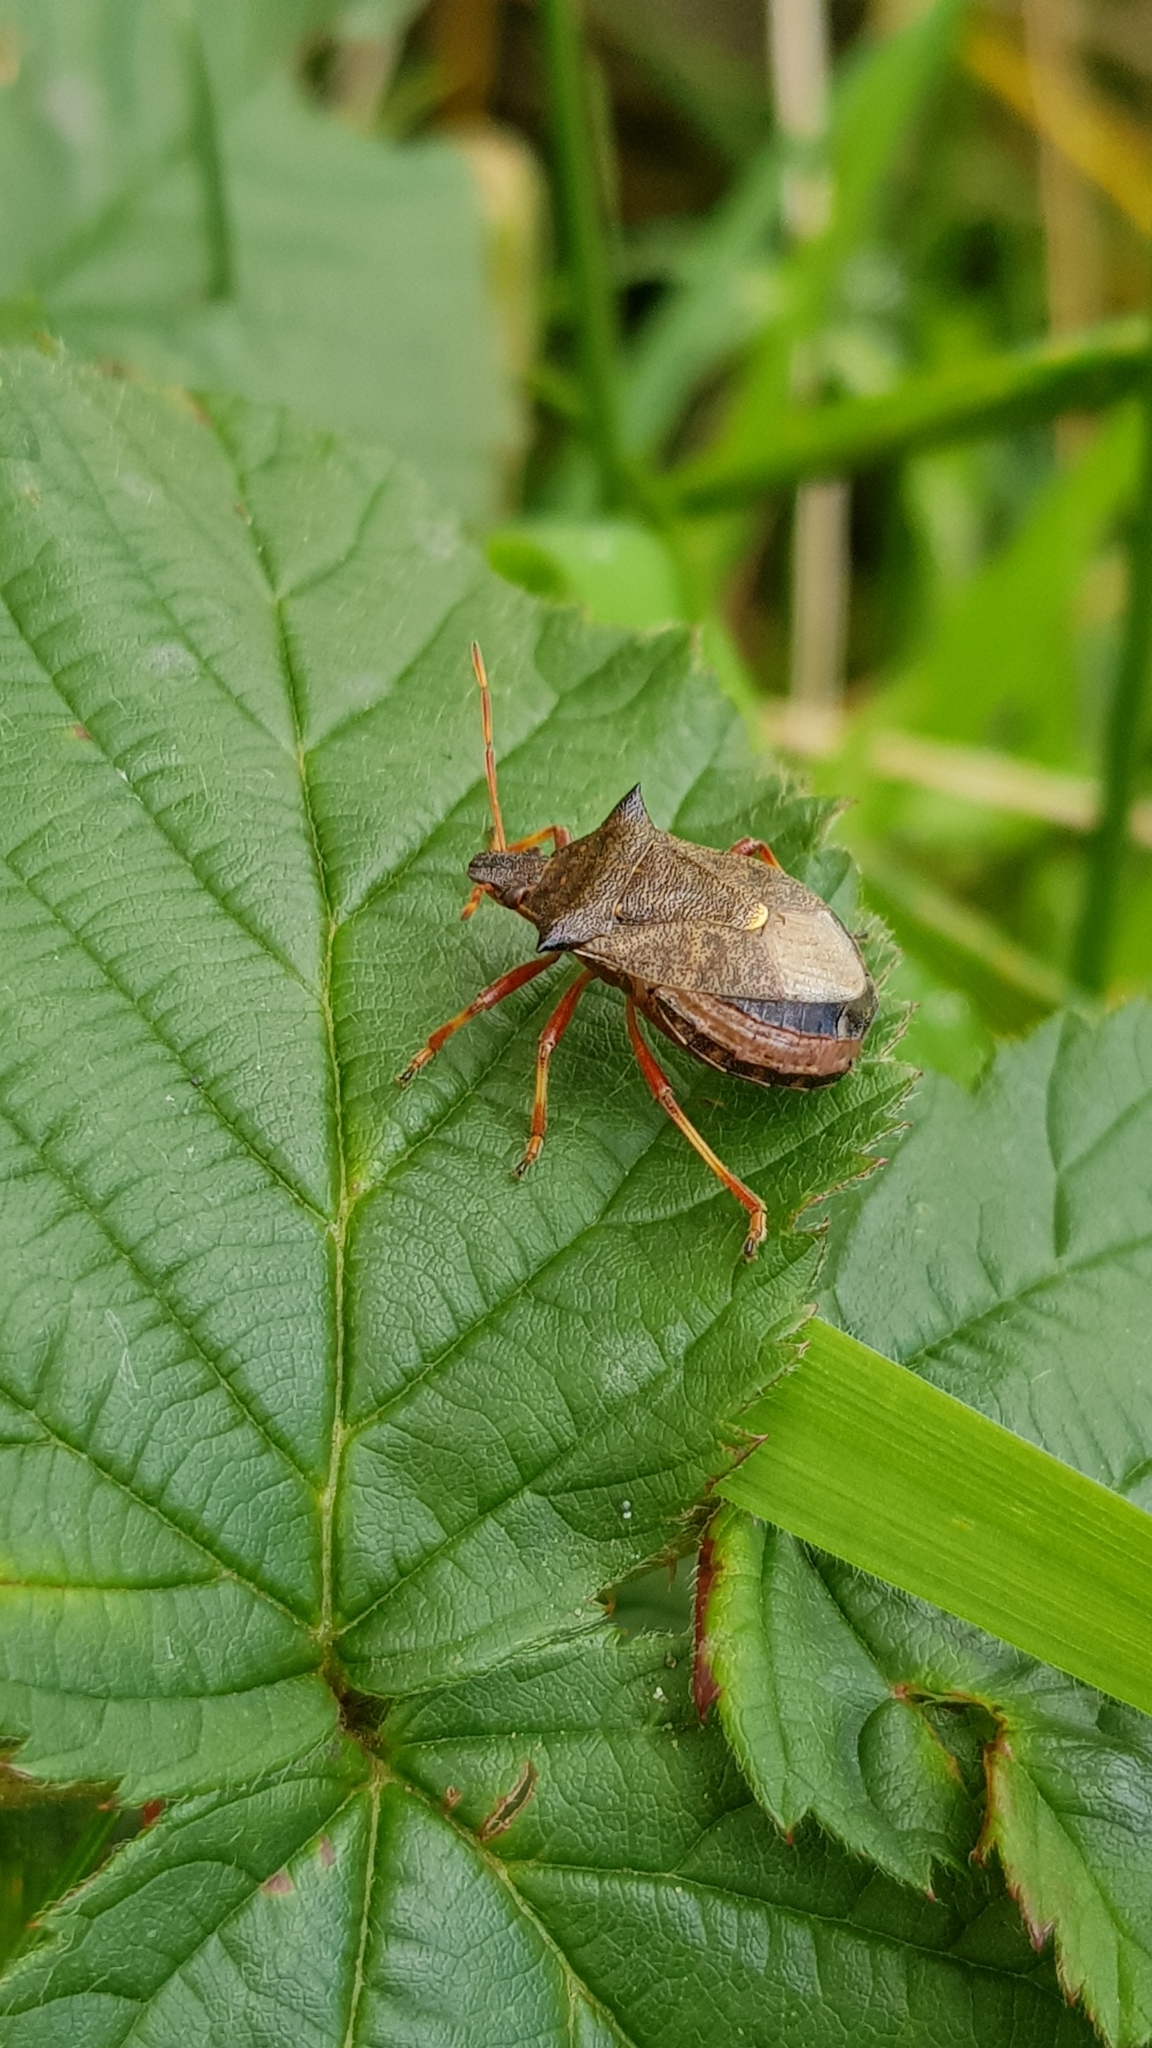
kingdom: Animalia
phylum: Arthropoda
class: Insecta
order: Hemiptera
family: Pentatomidae
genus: Picromerus
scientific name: Picromerus bidens
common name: Spiked shieldbug
